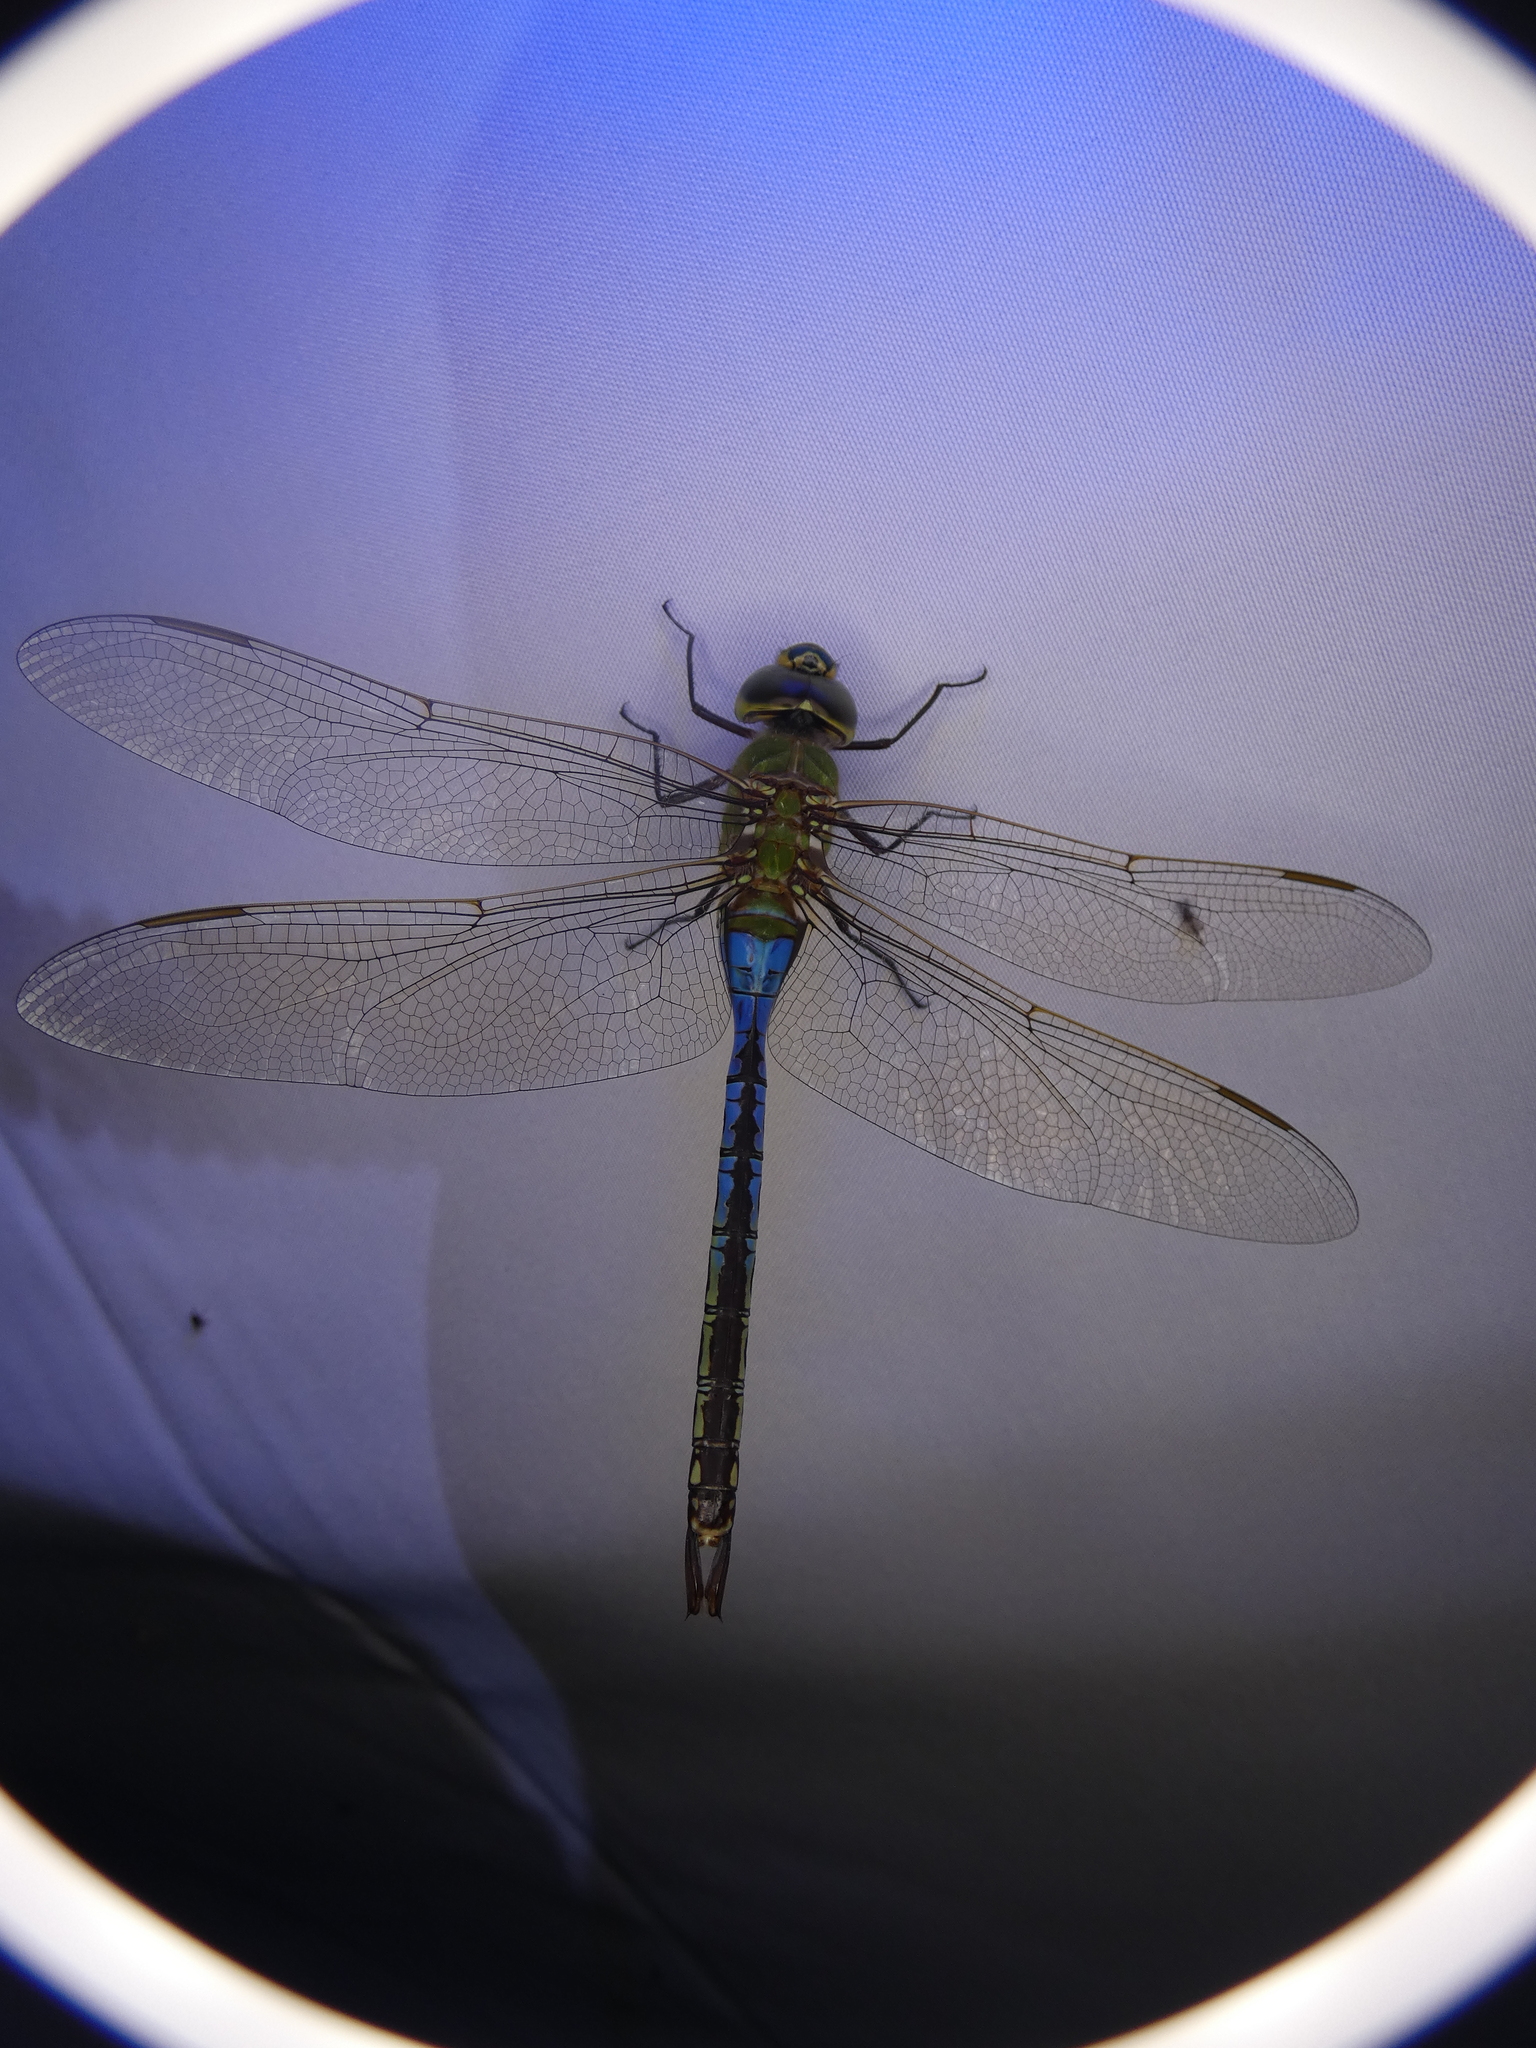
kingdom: Animalia
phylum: Arthropoda
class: Insecta
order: Odonata
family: Aeshnidae
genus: Anax
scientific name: Anax junius
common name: Common green darner
